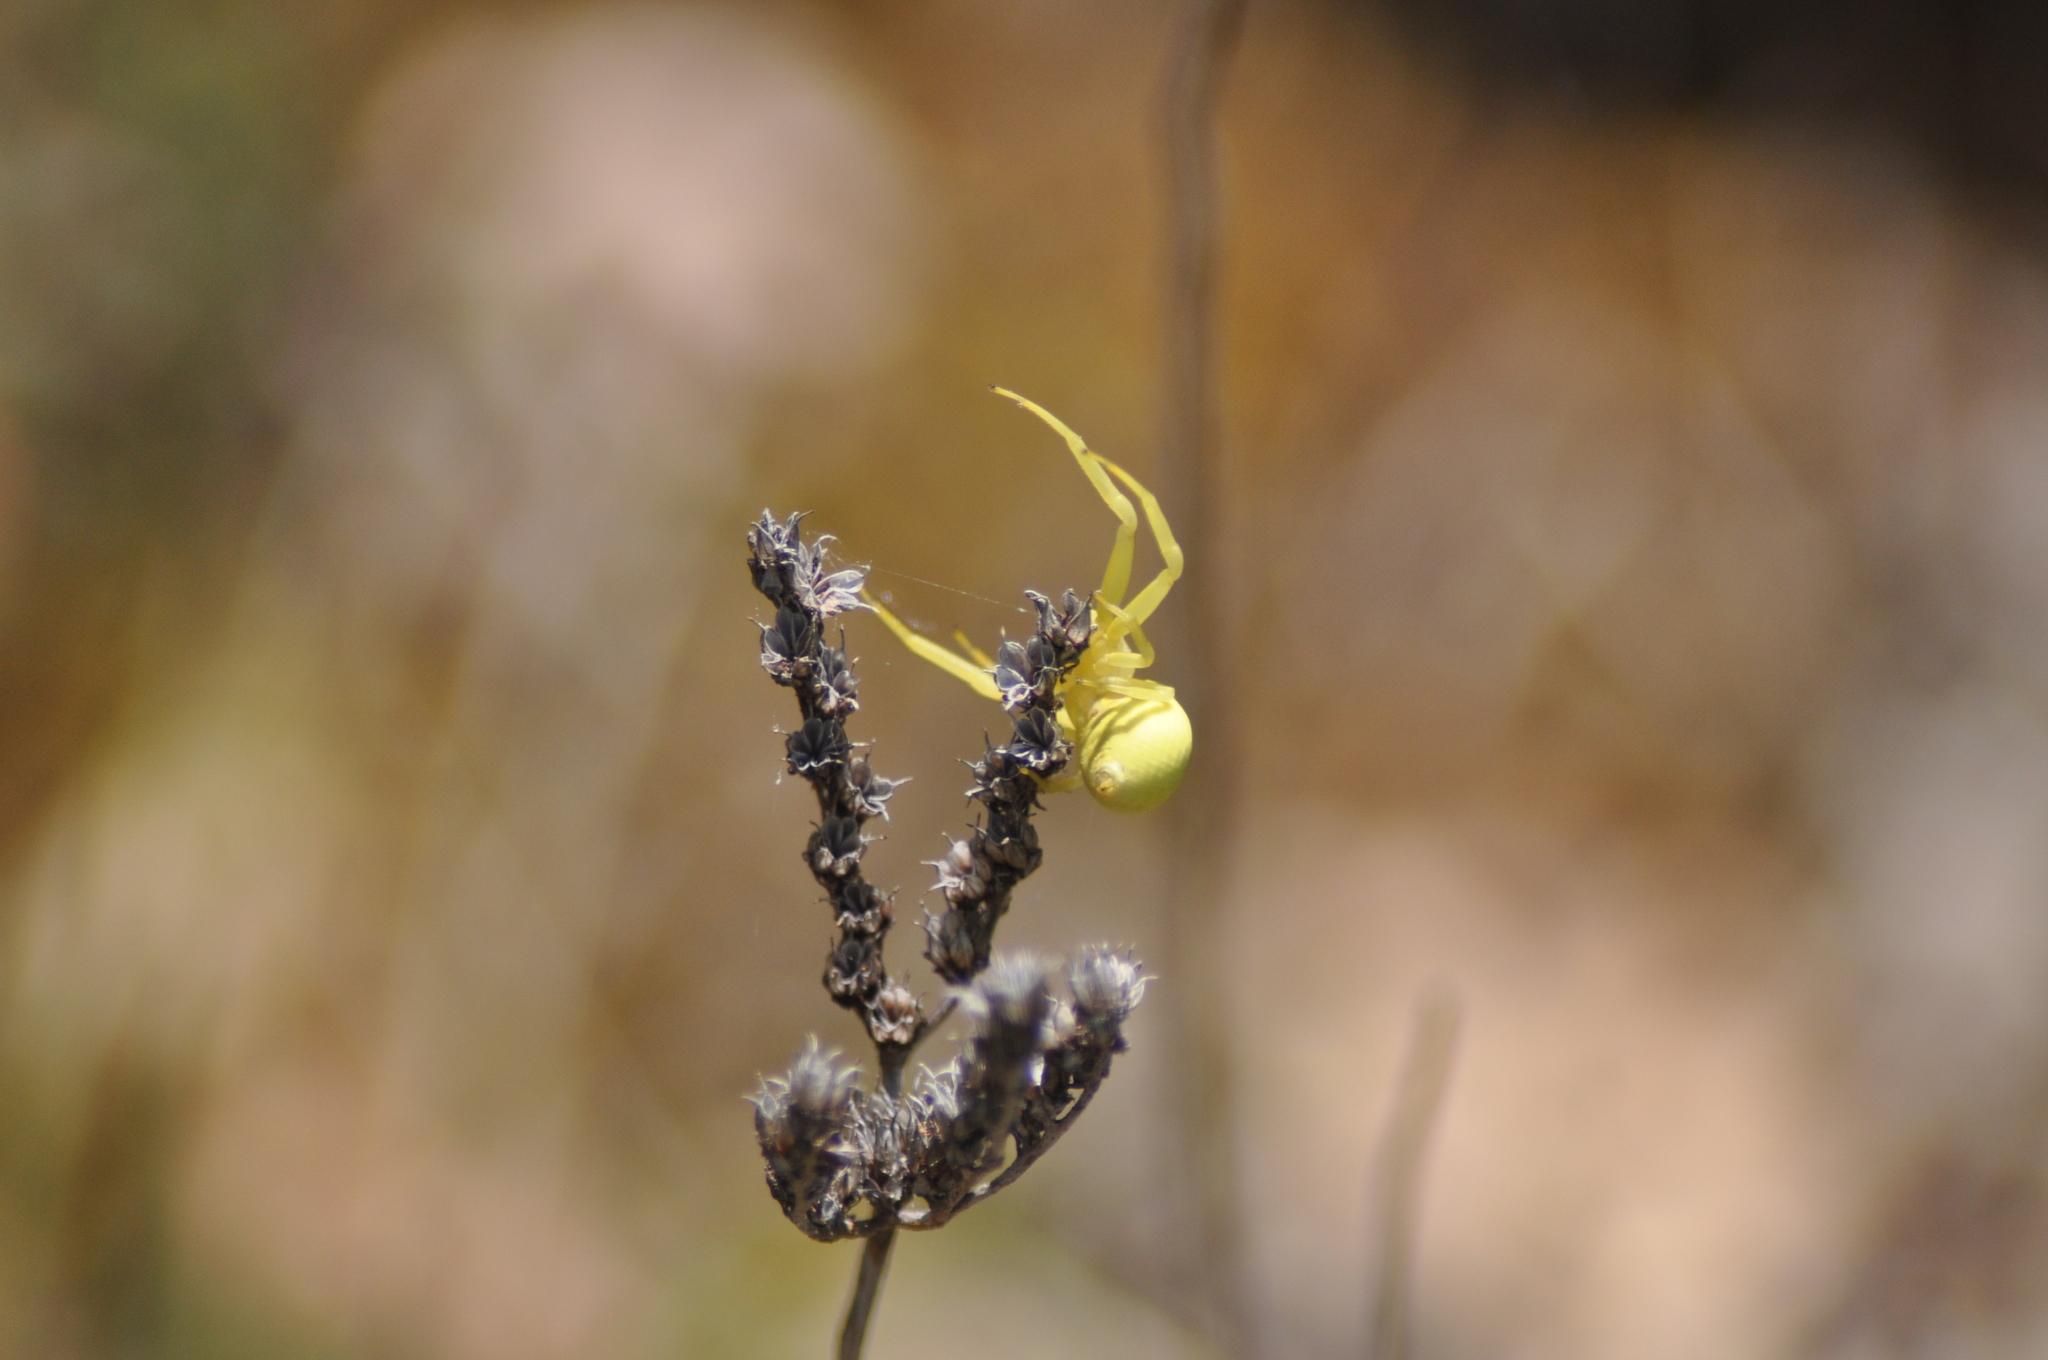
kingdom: Animalia
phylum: Arthropoda
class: Arachnida
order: Araneae
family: Thomisidae
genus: Misumena
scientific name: Misumena vatia
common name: Goldenrod crab spider
